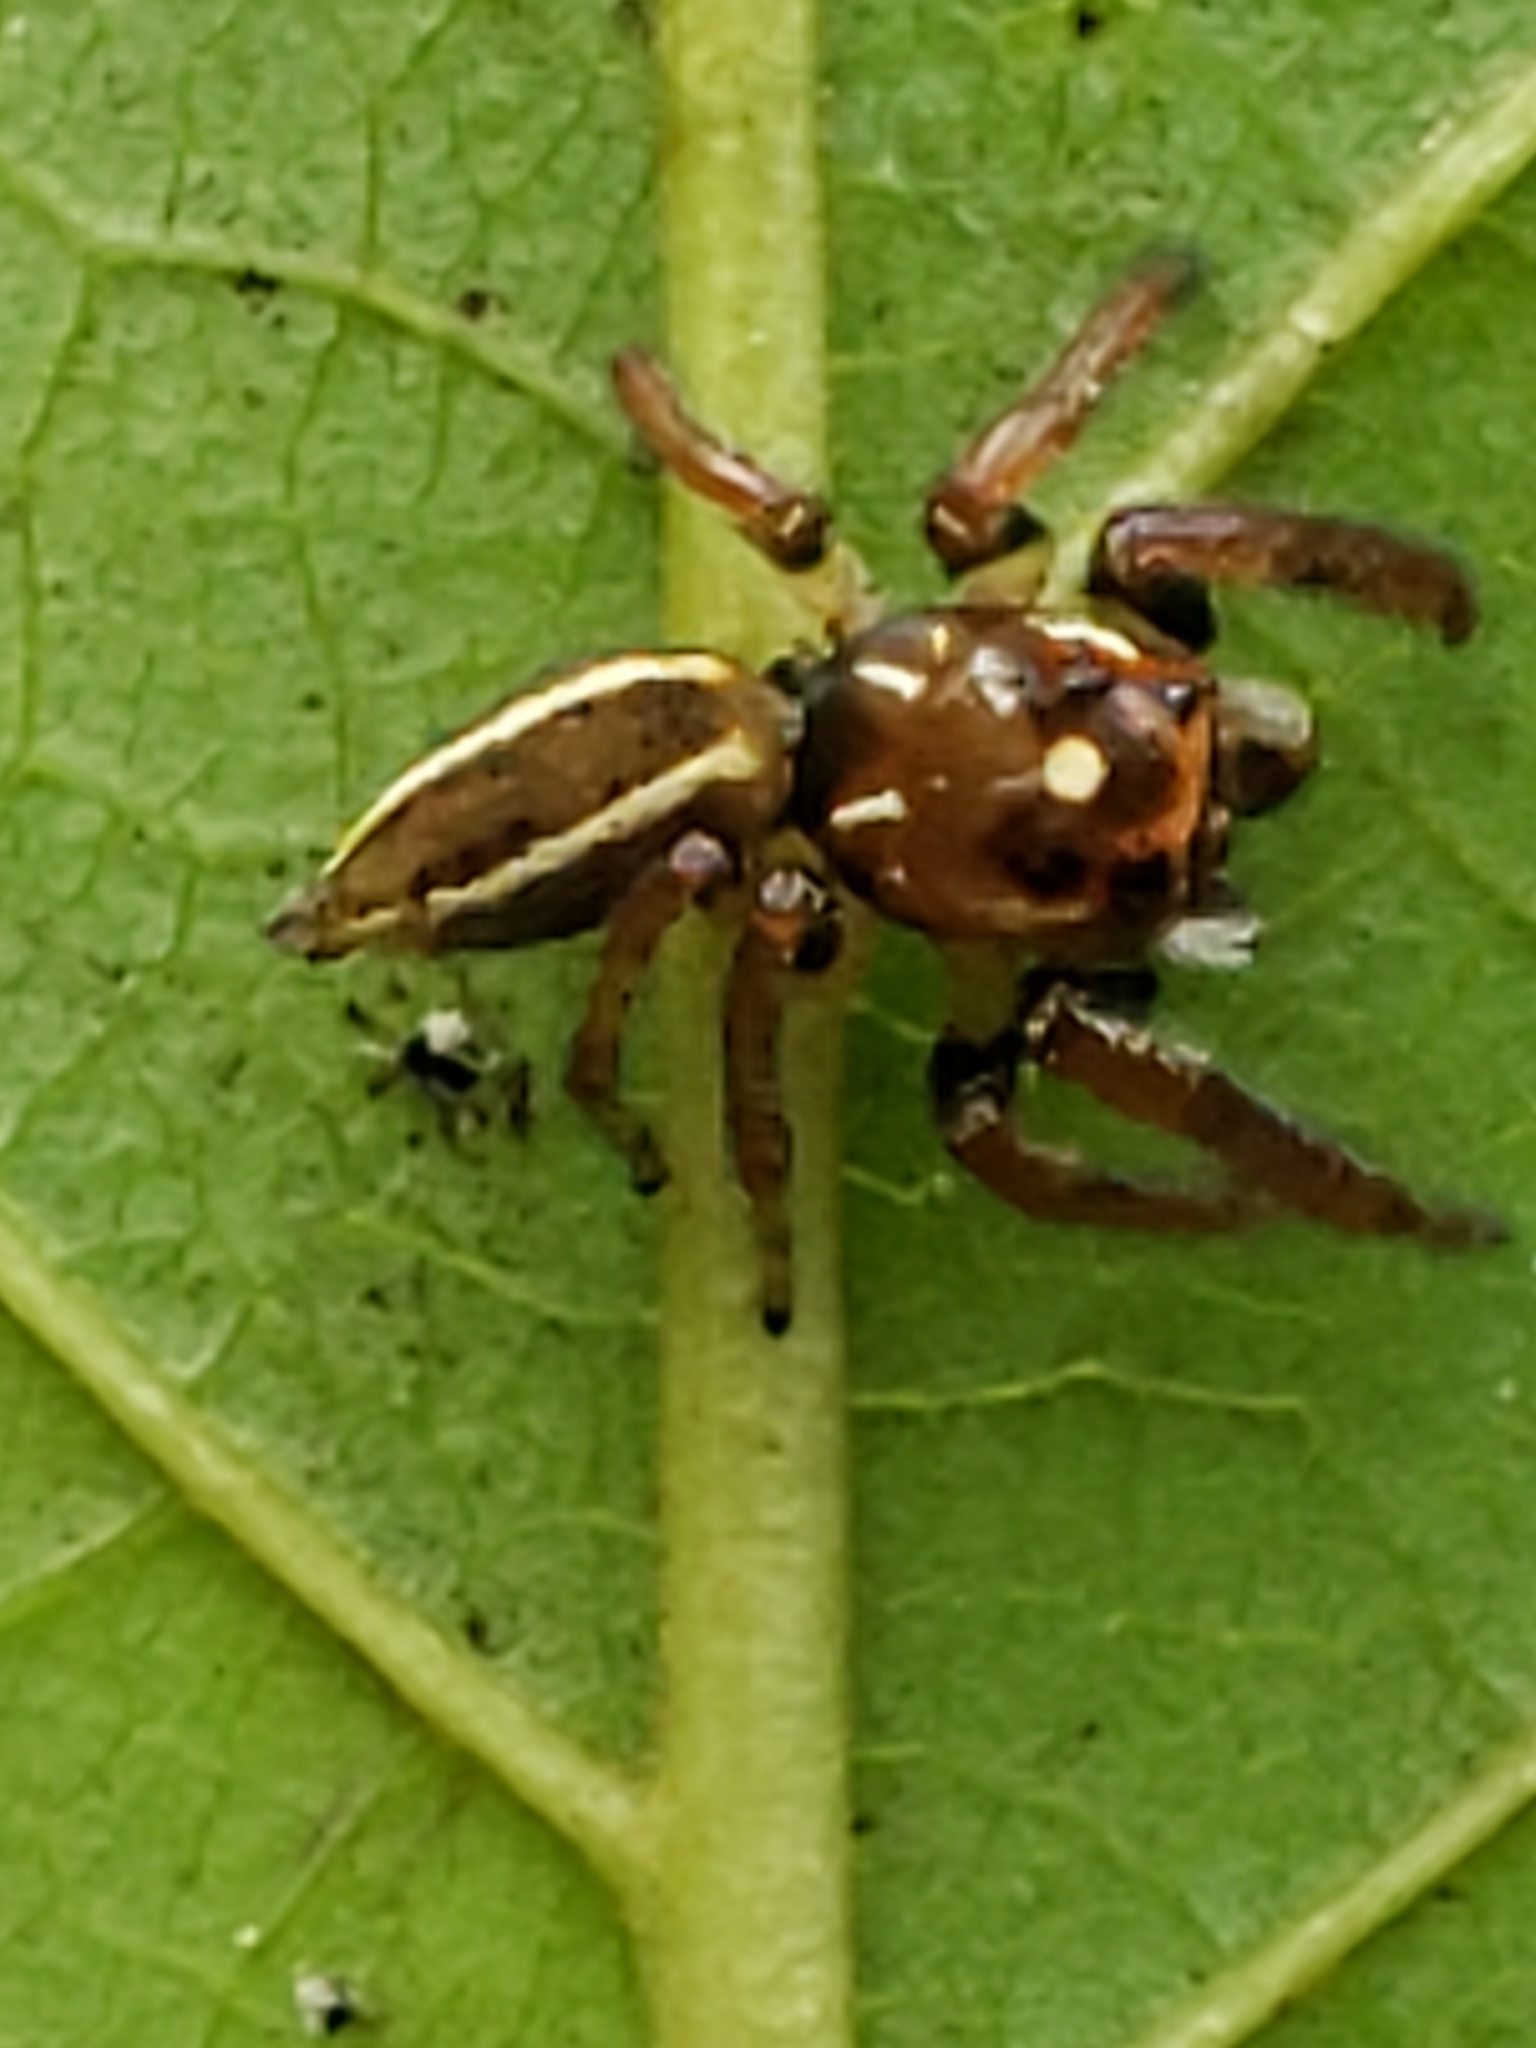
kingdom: Animalia
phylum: Arthropoda
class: Arachnida
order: Araneae
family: Salticidae
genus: Colonus
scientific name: Colonus sylvanus
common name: Jumping spiders
